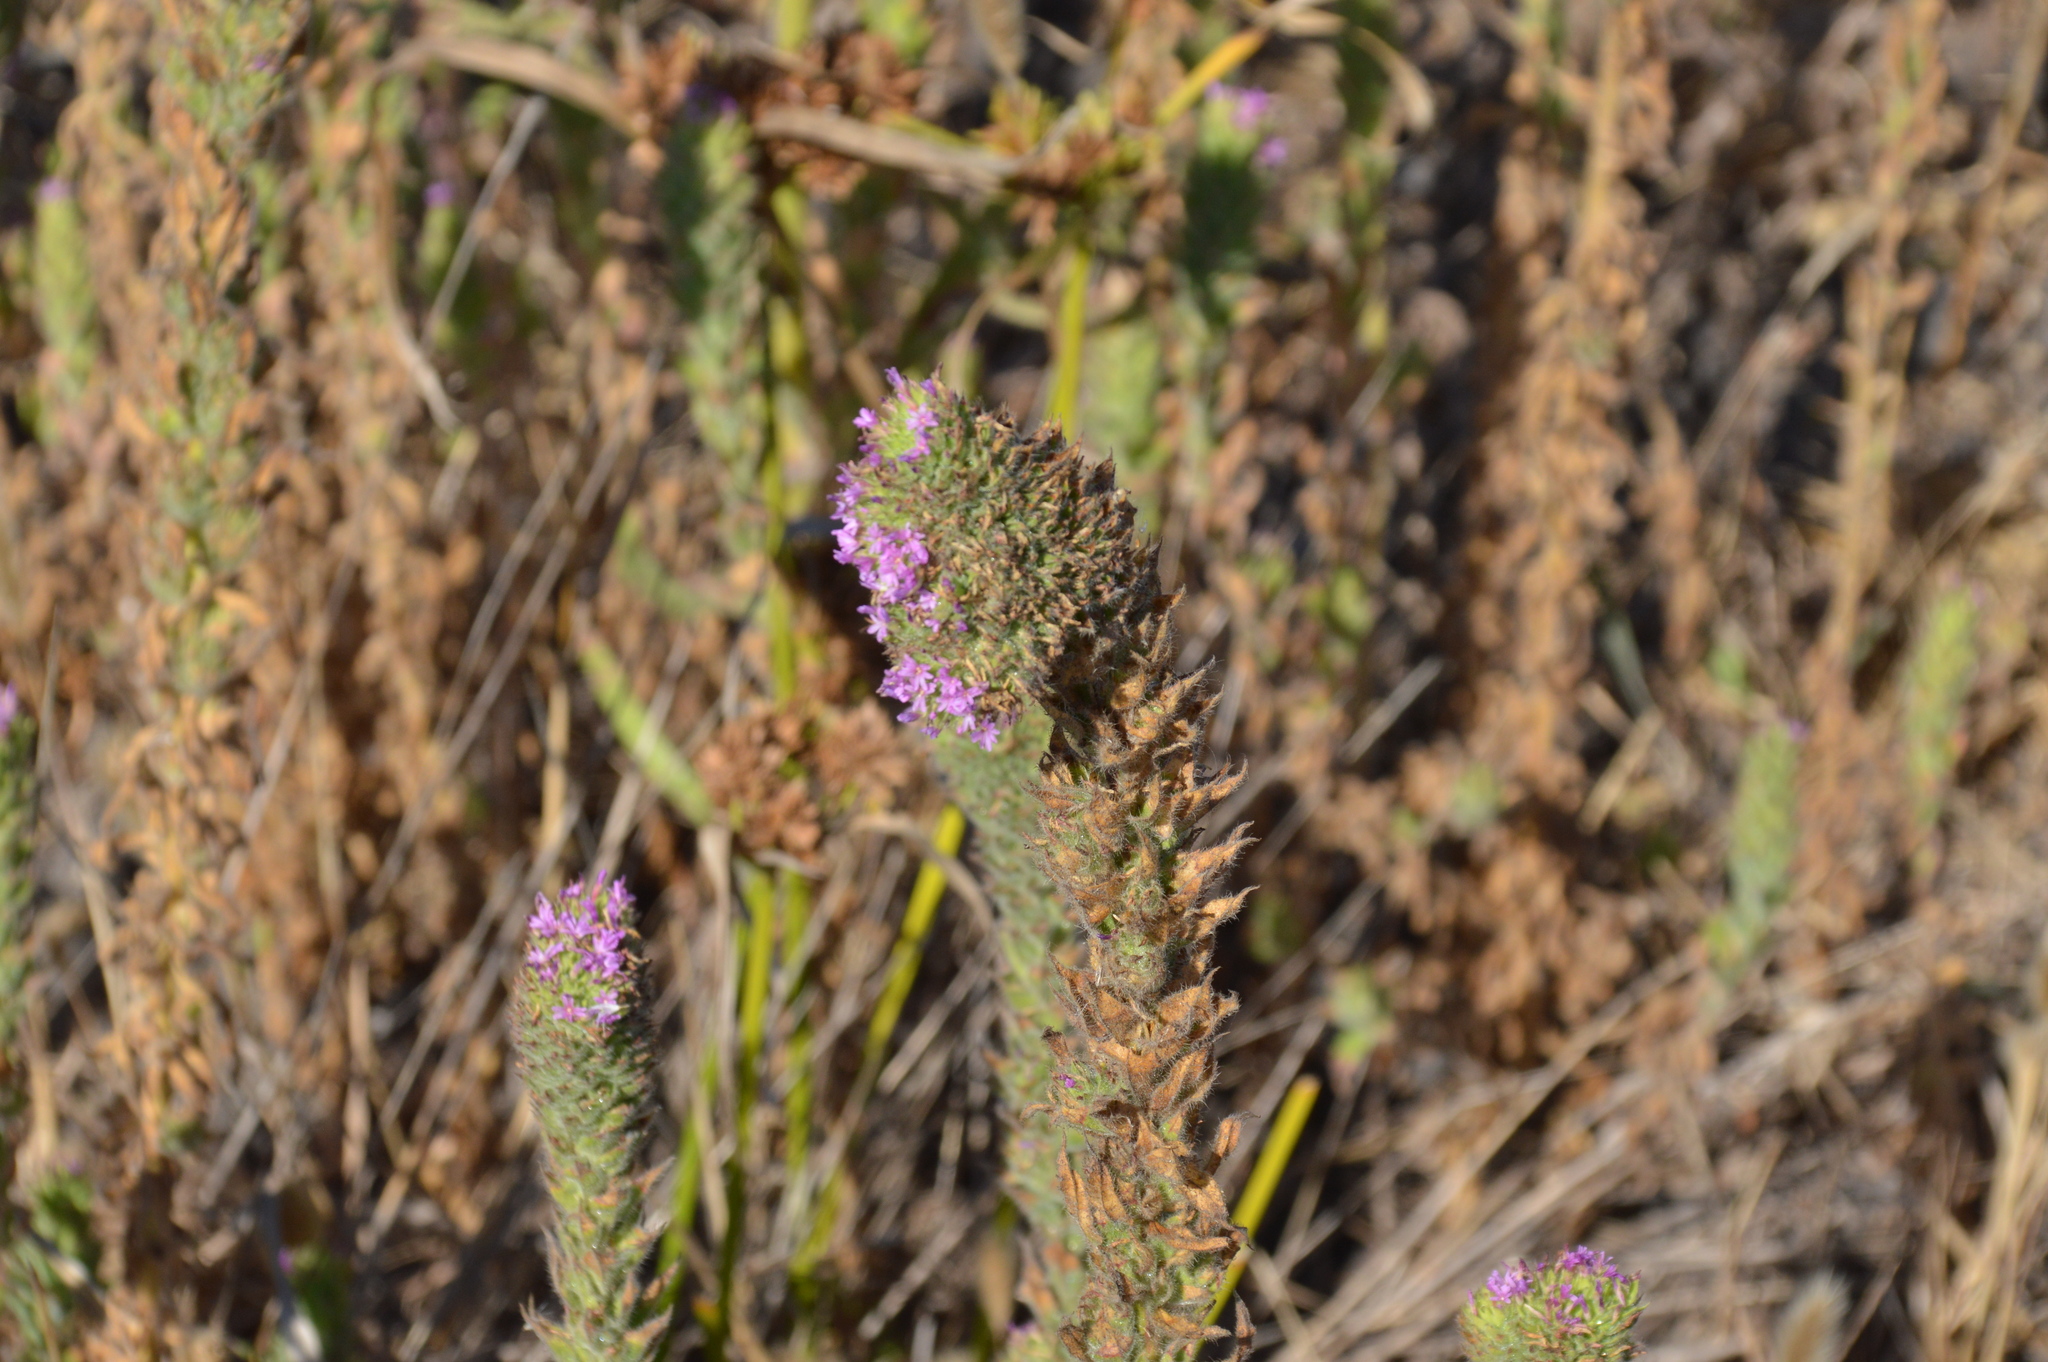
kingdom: Plantae
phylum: Tracheophyta
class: Magnoliopsida
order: Myrtales
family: Onagraceae
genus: Epilobium
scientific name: Epilobium densiflorum
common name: Dense spike-primrose
